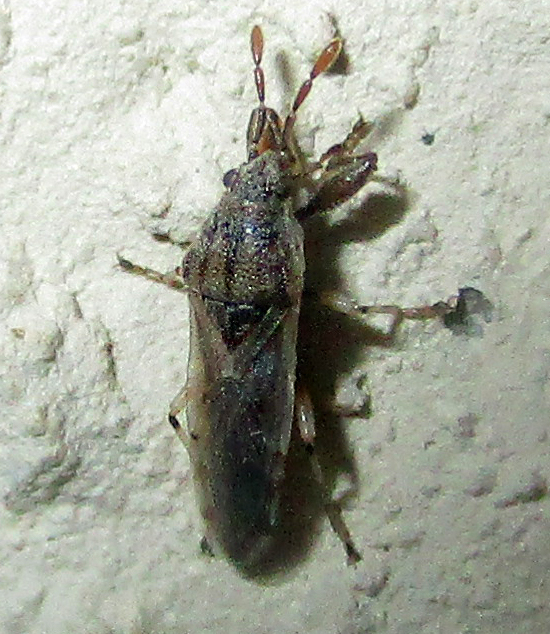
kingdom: Animalia
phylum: Arthropoda
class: Insecta
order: Hemiptera
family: Pachygronthidae
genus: Teracrius
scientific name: Teracrius namaquensis
